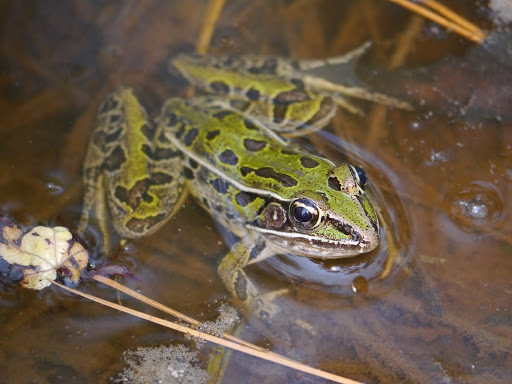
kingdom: Animalia
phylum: Chordata
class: Amphibia
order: Anura
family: Ranidae
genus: Lithobates
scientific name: Lithobates sphenocephalus
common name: Southern leopard frog
